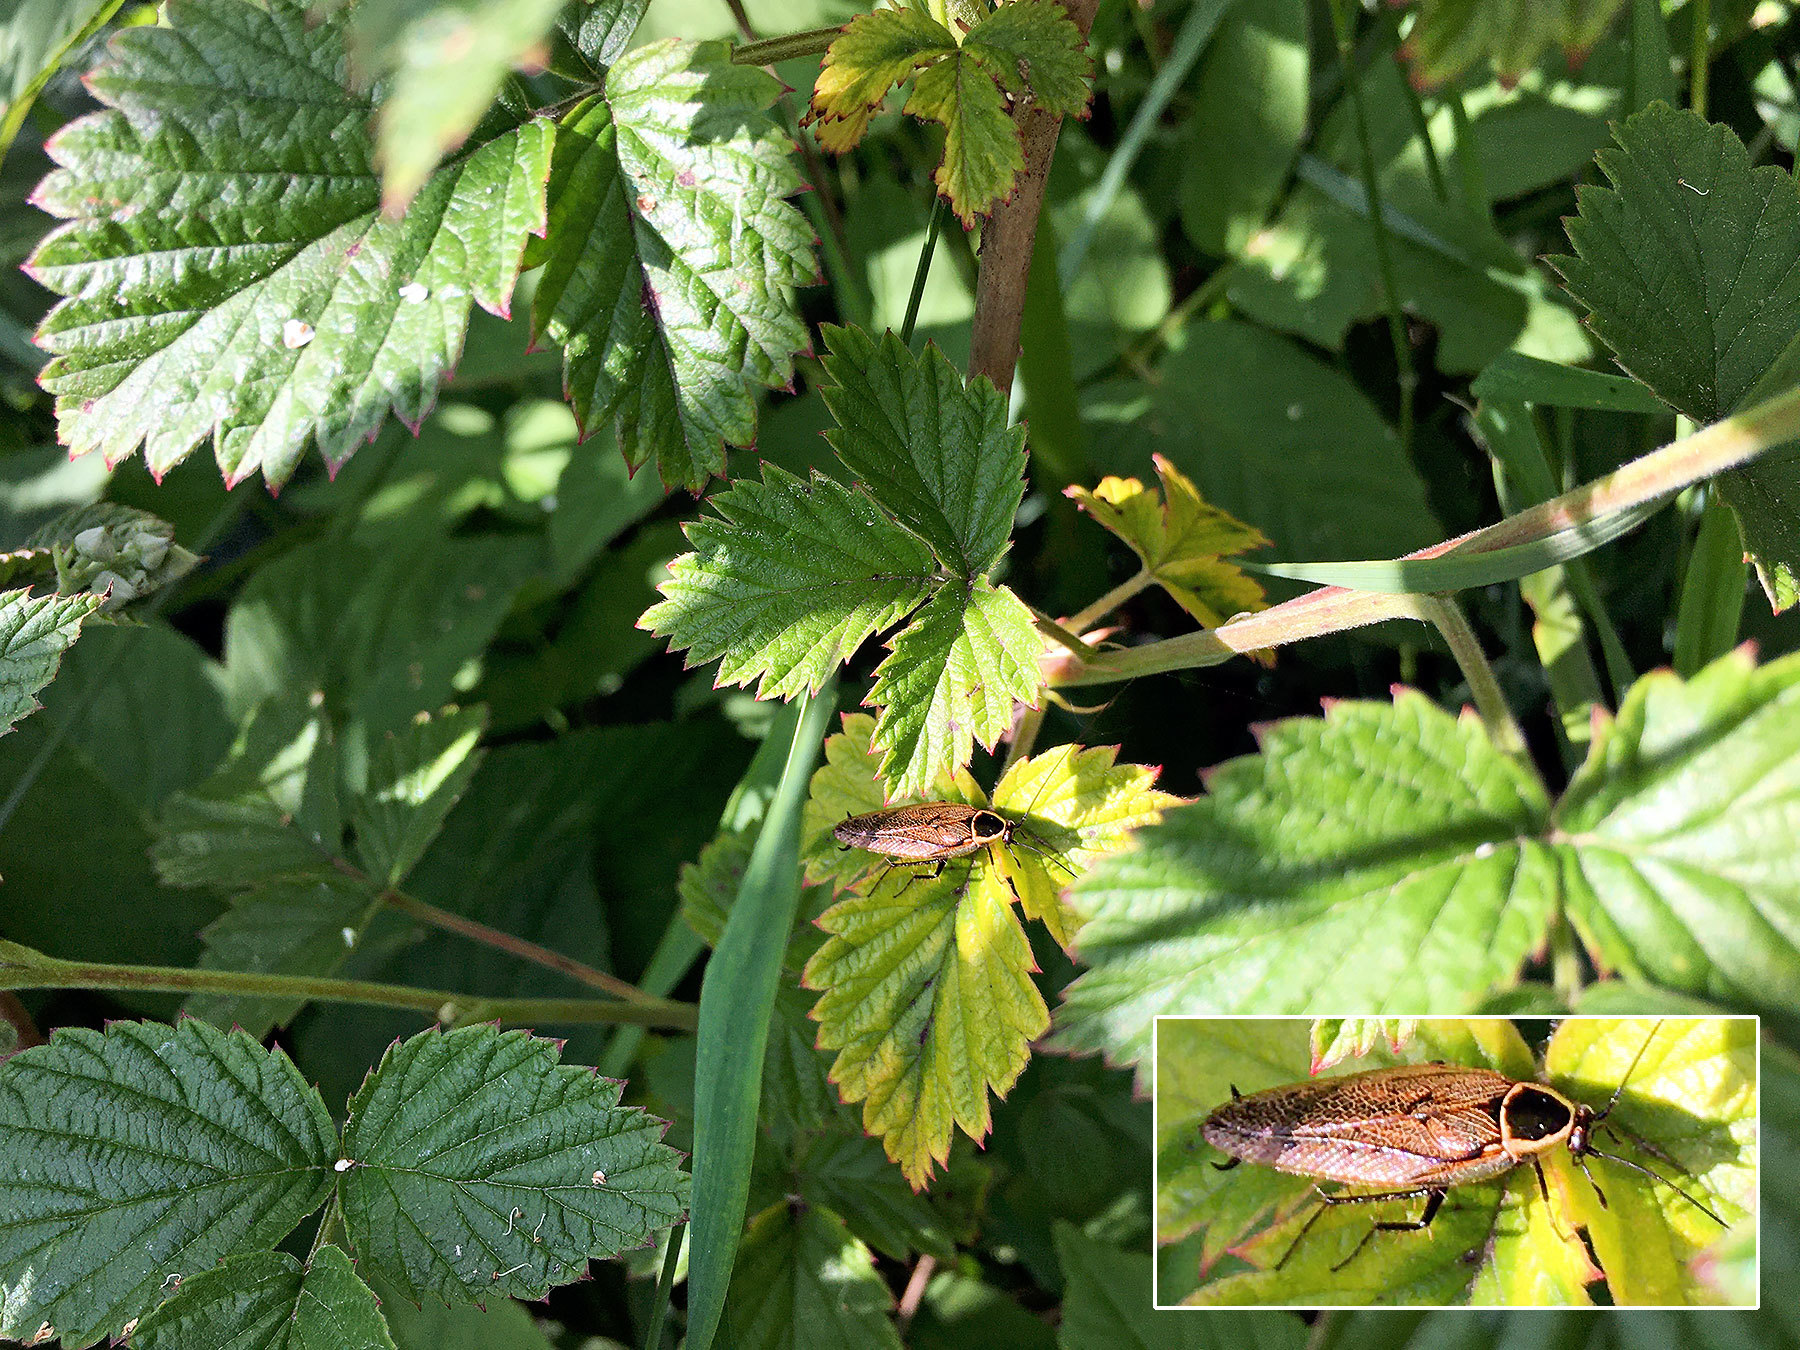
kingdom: Animalia
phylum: Arthropoda
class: Insecta
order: Blattodea
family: Ectobiidae
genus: Ectobius
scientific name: Ectobius sylvestris
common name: Forest cockroach
